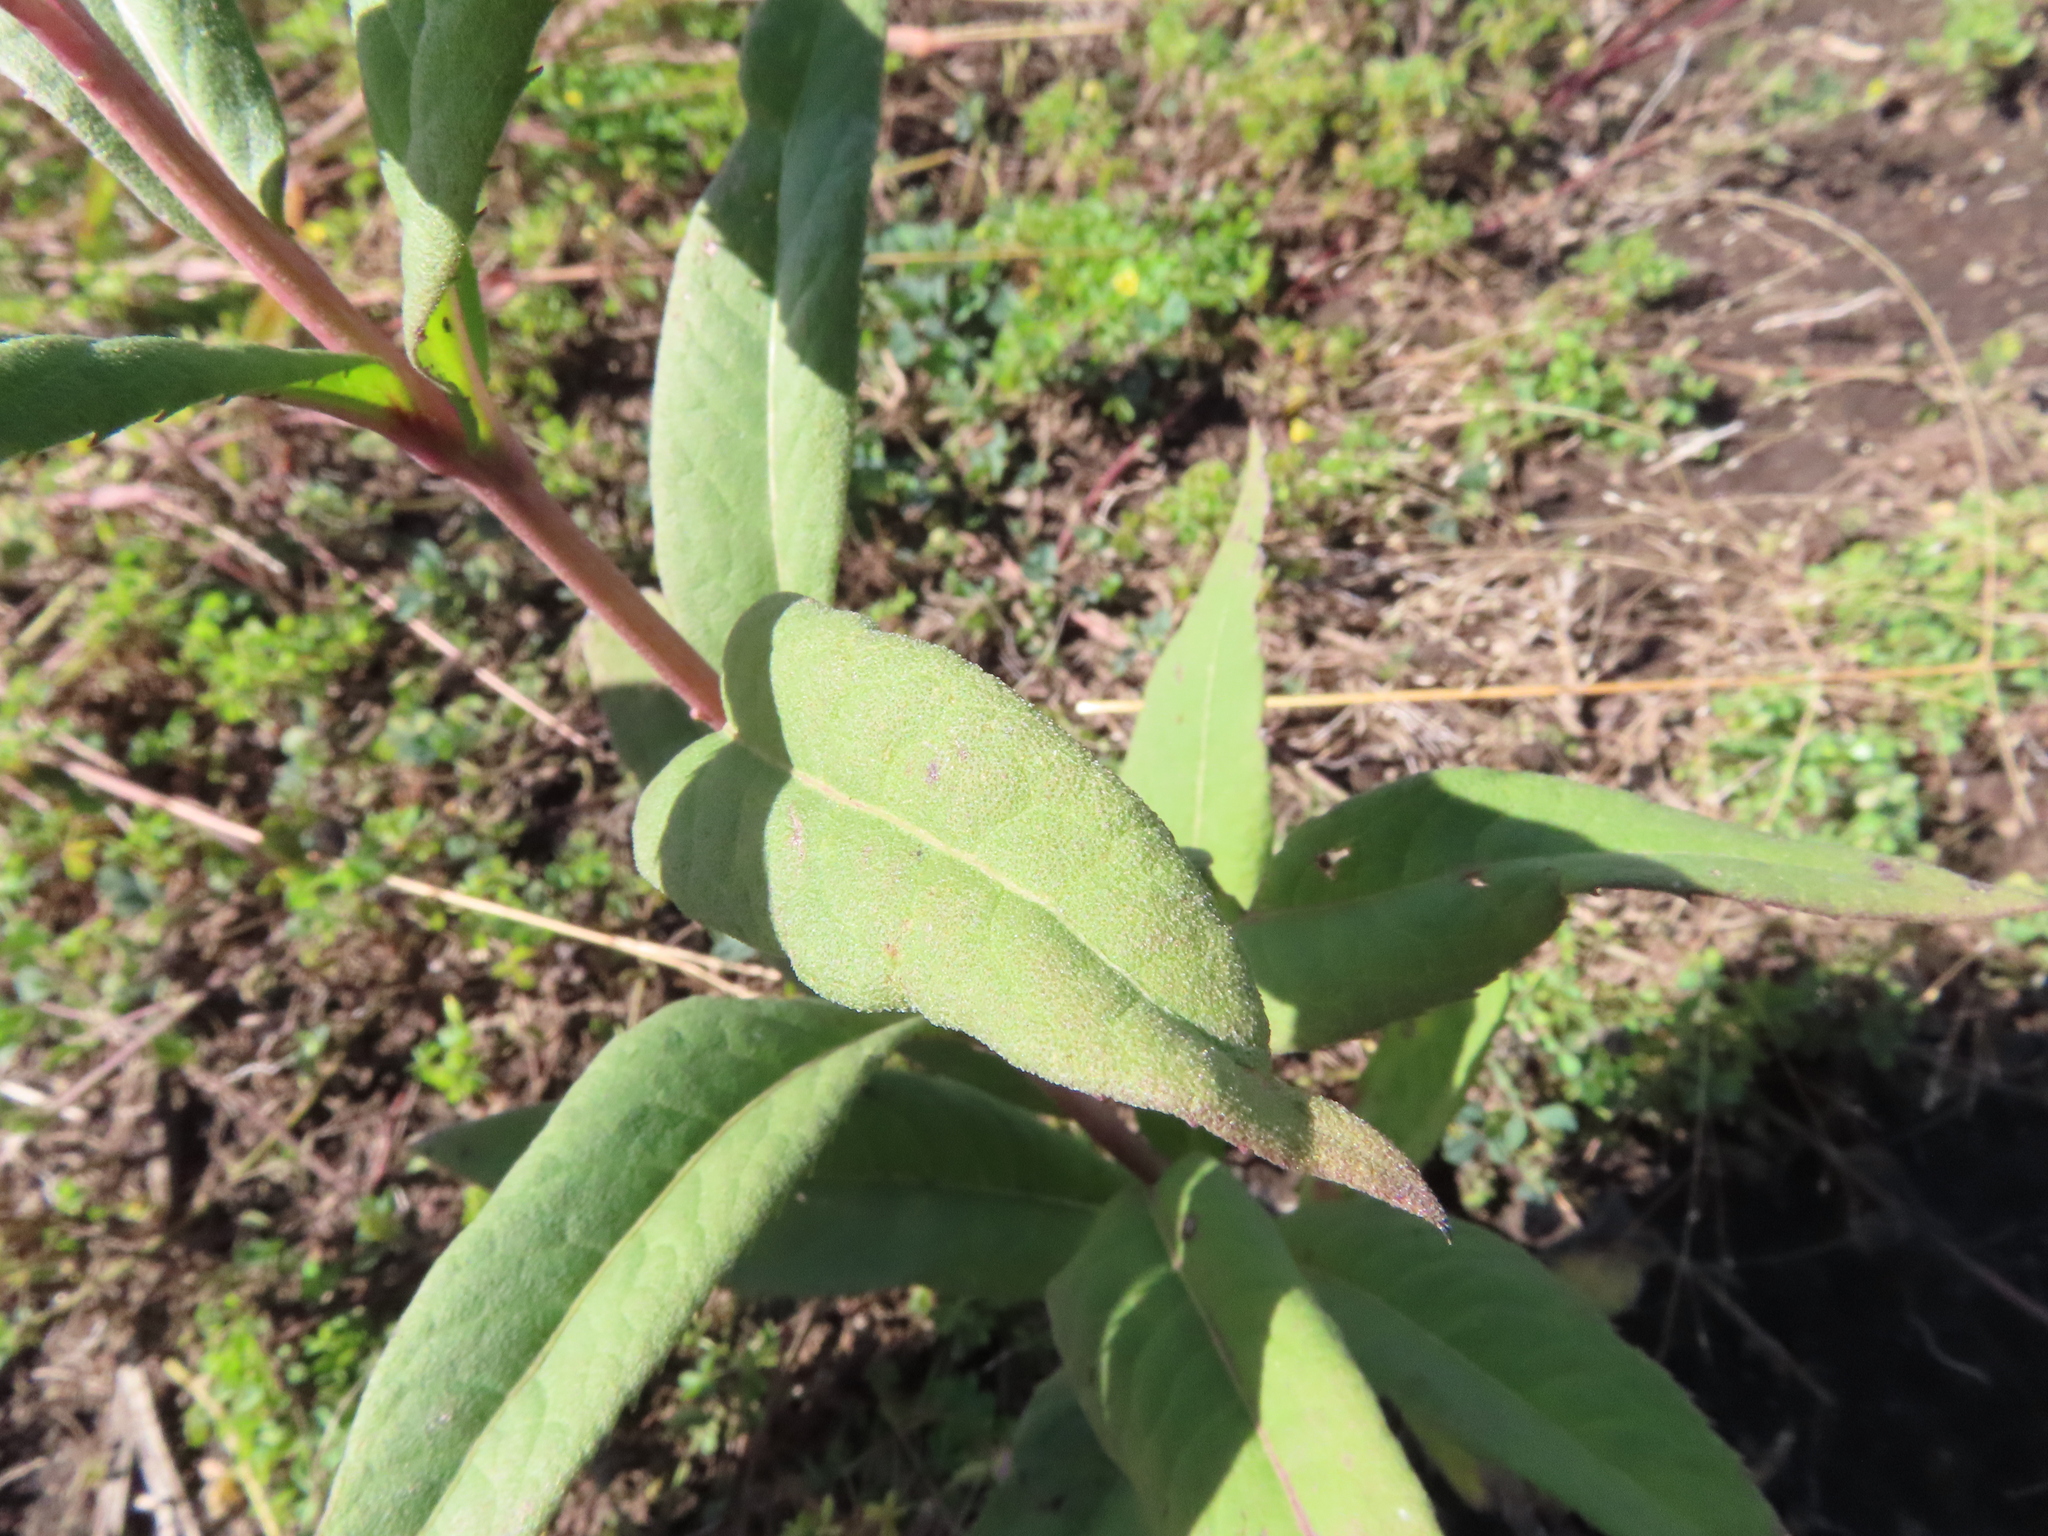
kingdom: Plantae
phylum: Tracheophyta
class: Magnoliopsida
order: Asterales
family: Asteraceae
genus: Vernonia
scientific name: Vernonia fasciculata
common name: Fascicled ironweed
